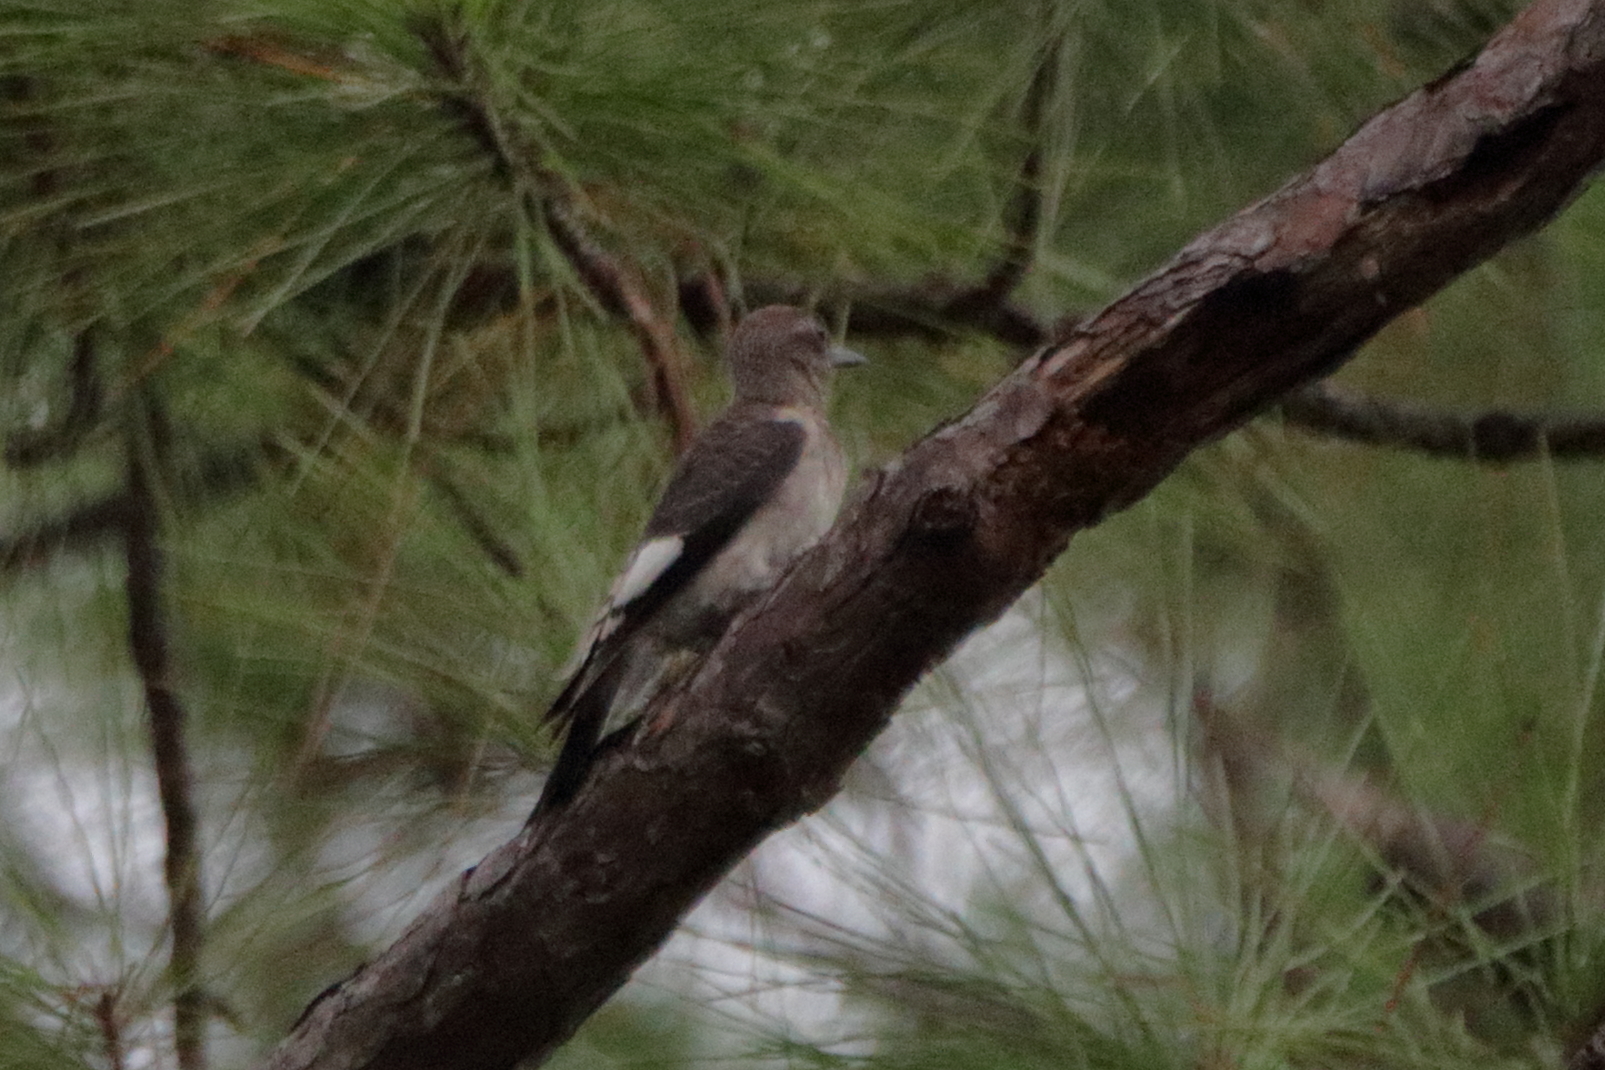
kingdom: Animalia
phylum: Chordata
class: Aves
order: Piciformes
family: Picidae
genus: Melanerpes
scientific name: Melanerpes erythrocephalus
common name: Red-headed woodpecker
